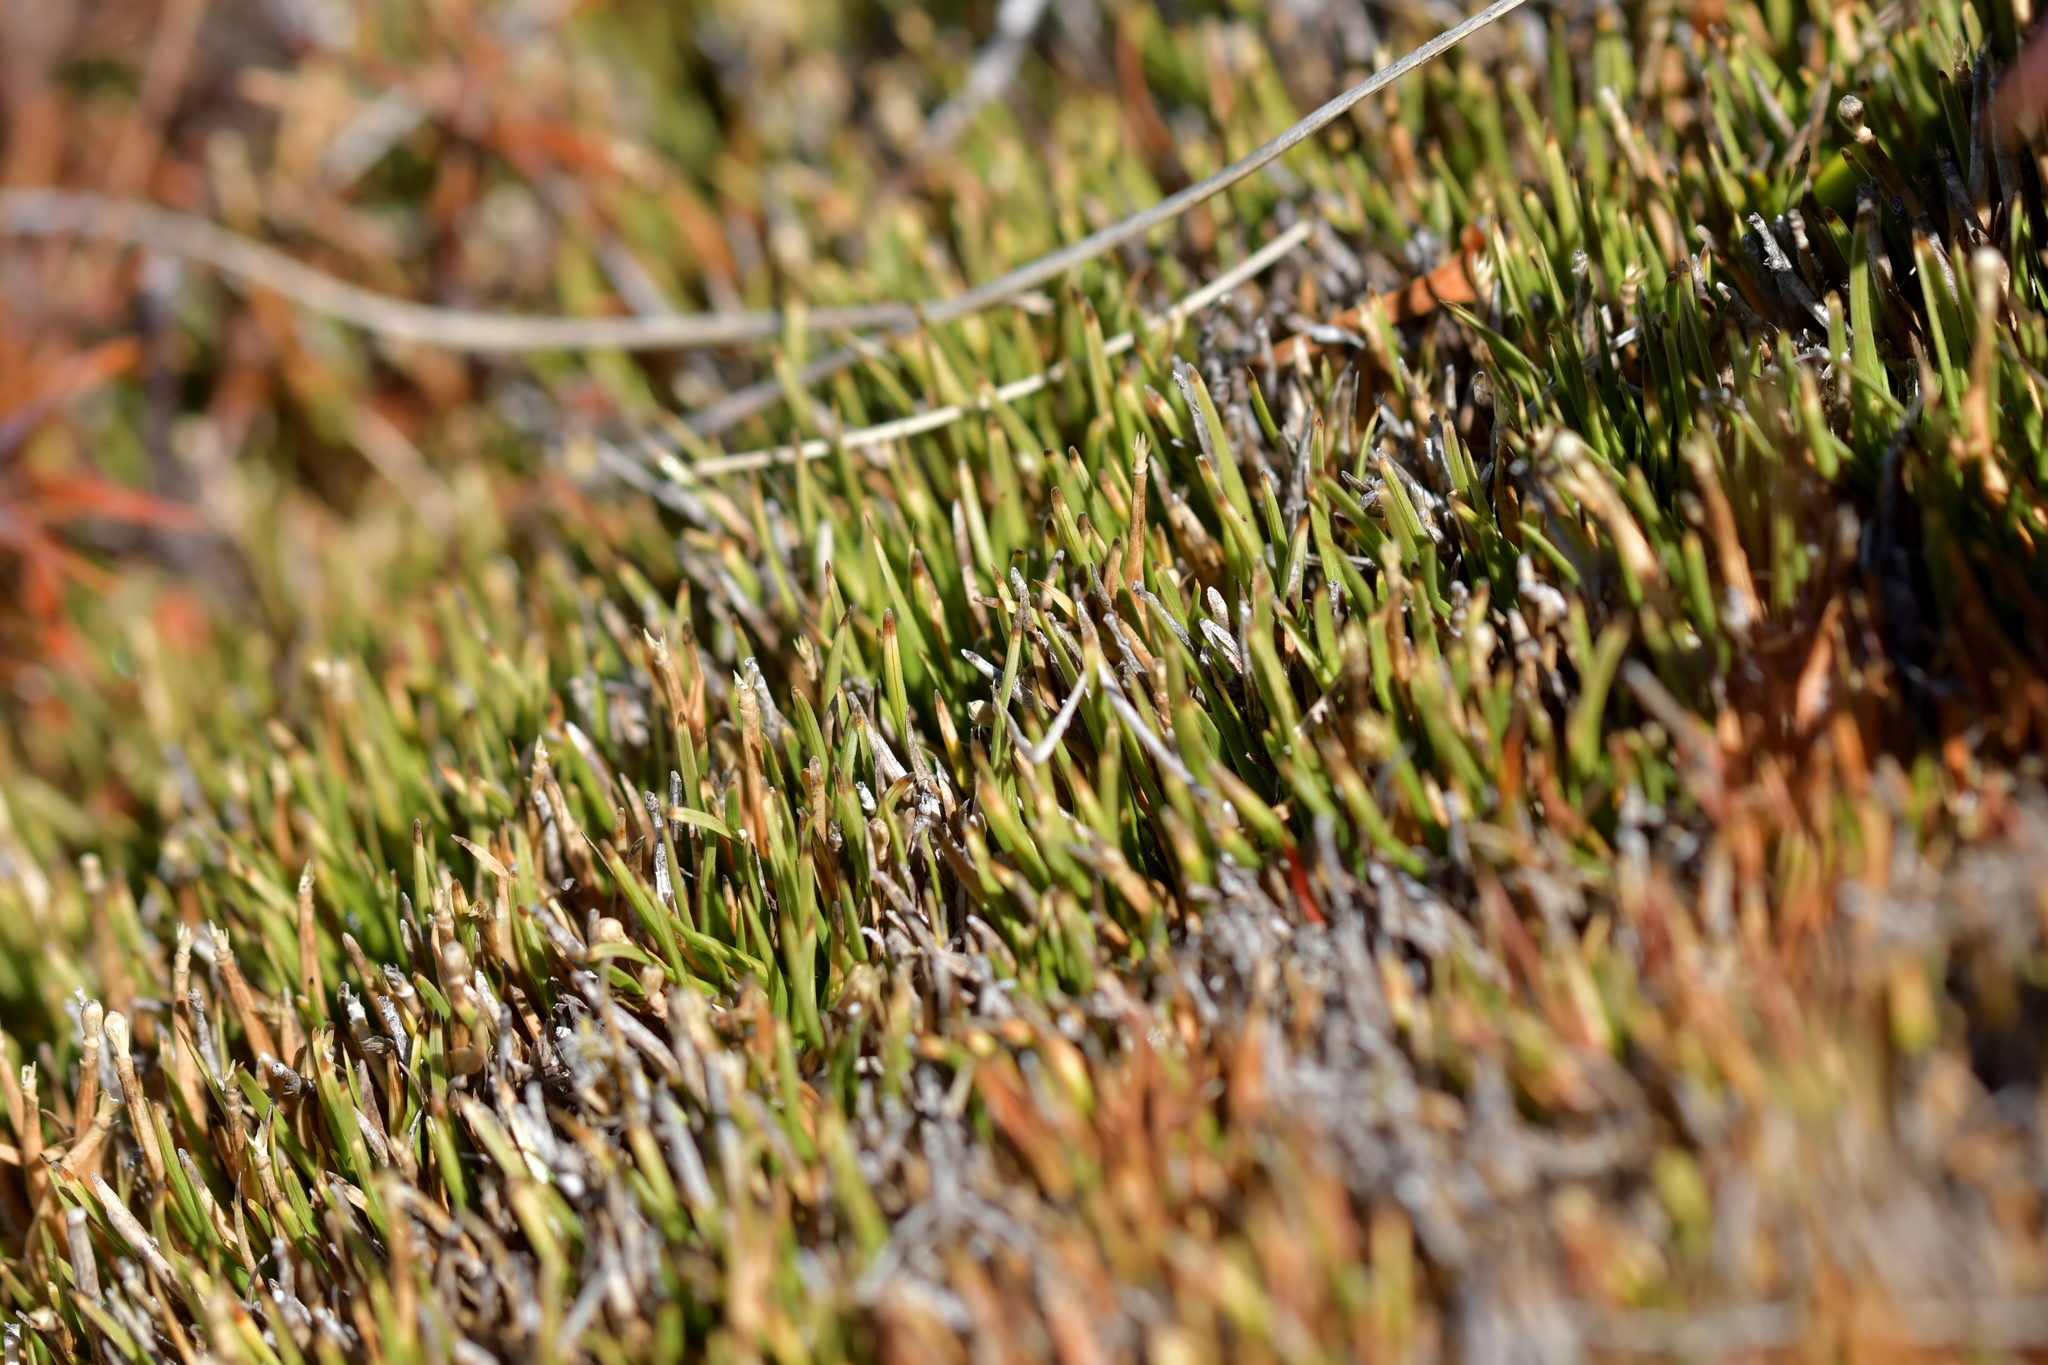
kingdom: Plantae
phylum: Tracheophyta
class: Liliopsida
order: Poales
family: Cyperaceae
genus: Oreobolus
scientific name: Oreobolus pectinatus
